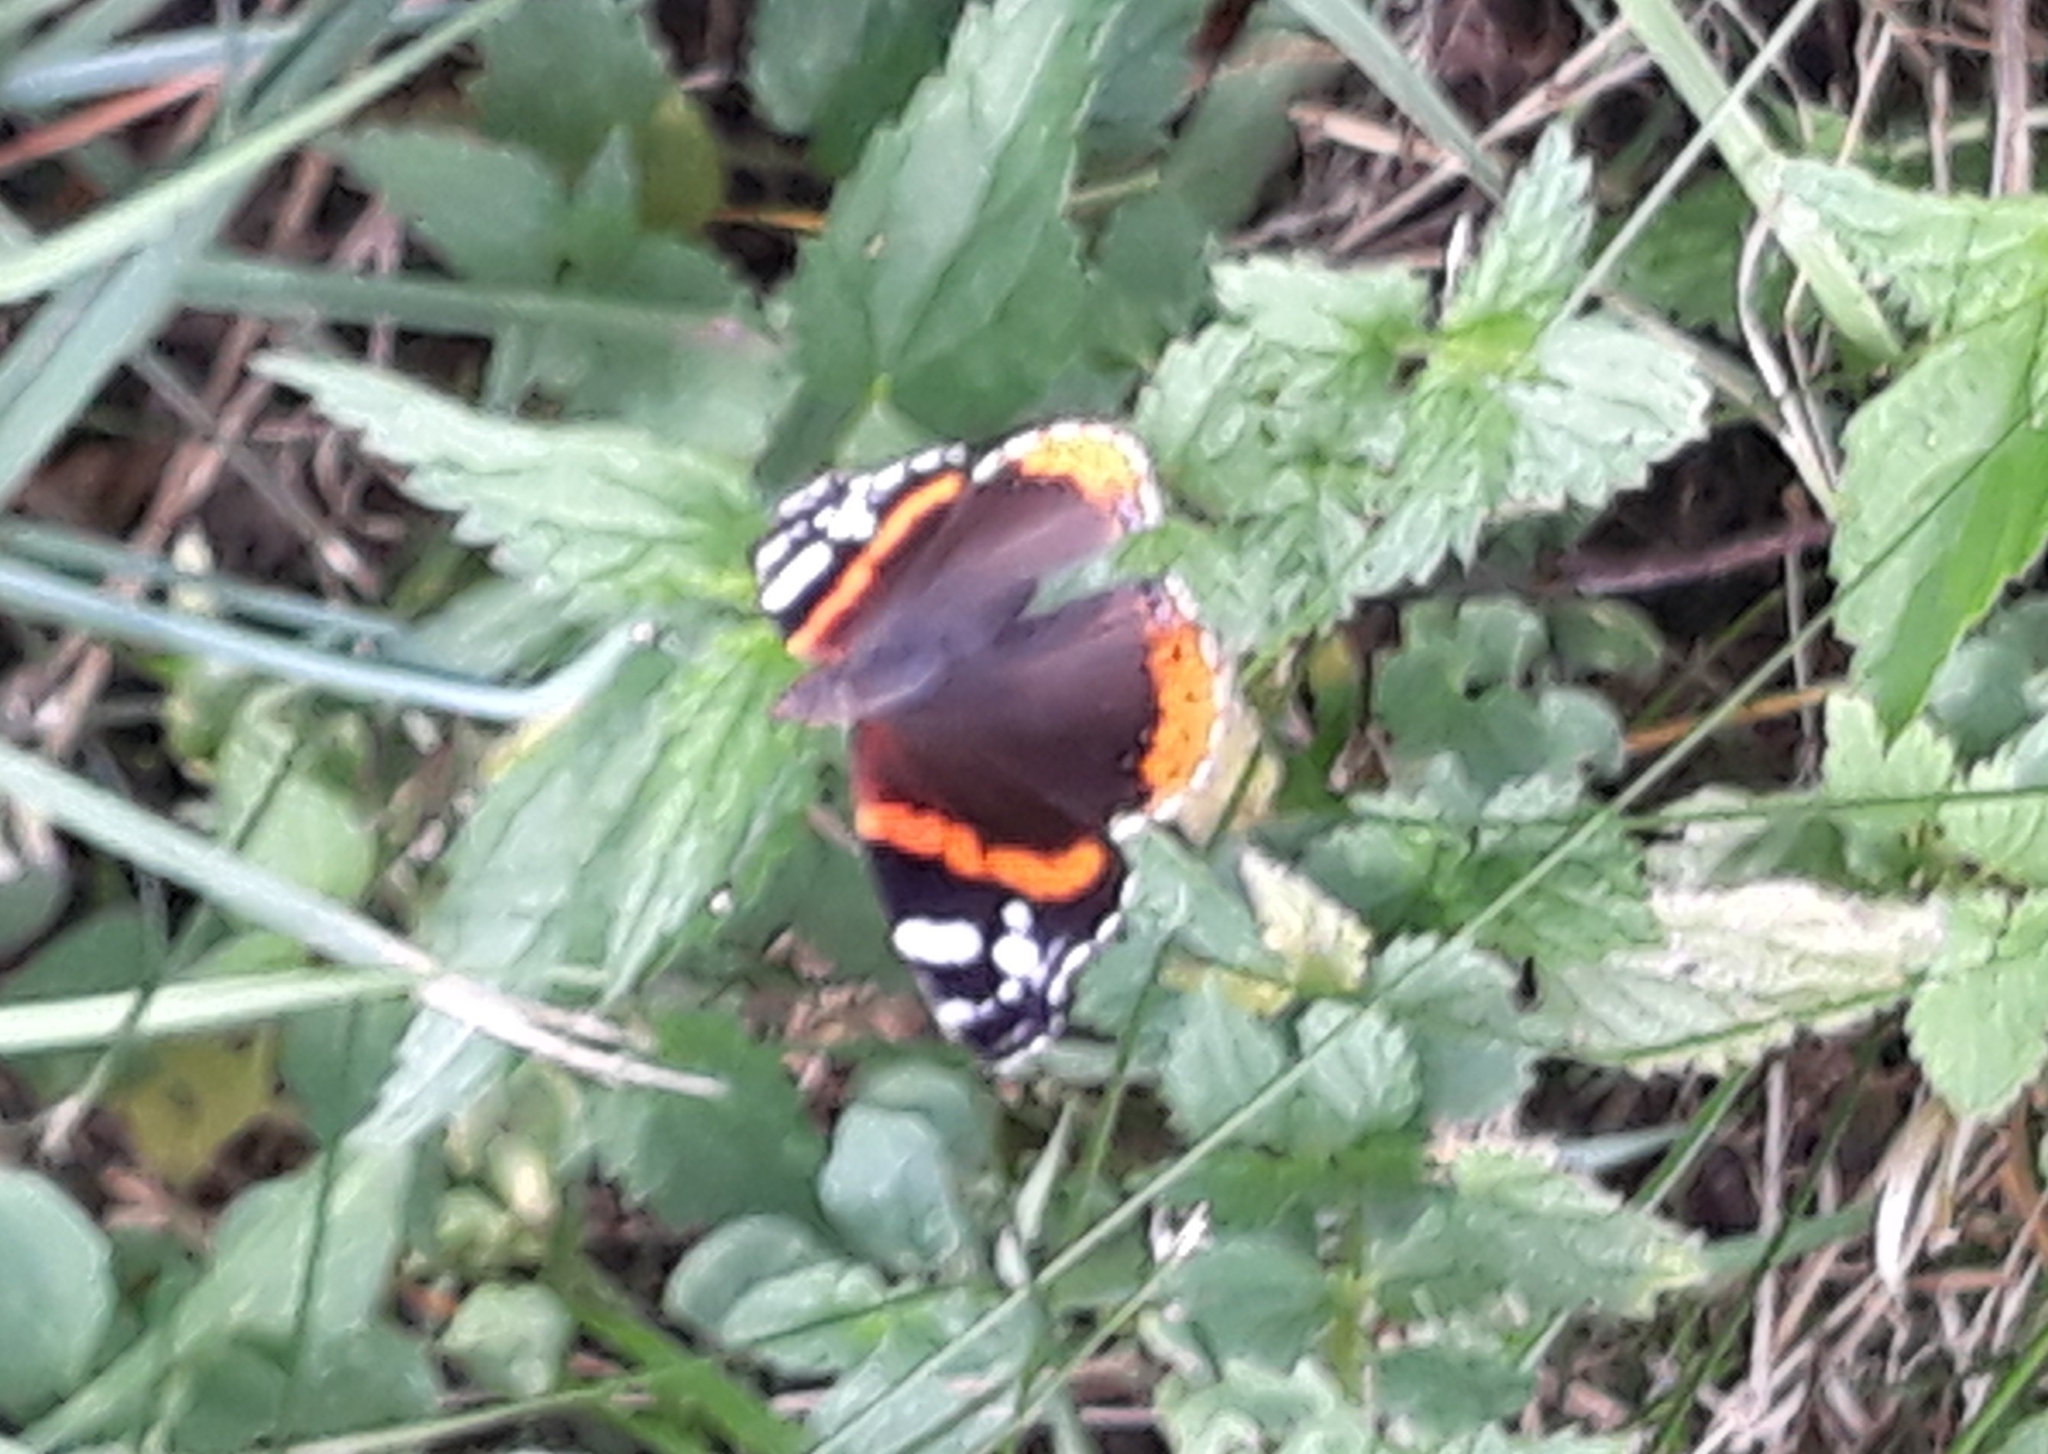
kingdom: Animalia
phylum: Arthropoda
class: Insecta
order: Lepidoptera
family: Nymphalidae
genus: Vanessa
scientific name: Vanessa atalanta
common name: Red admiral
